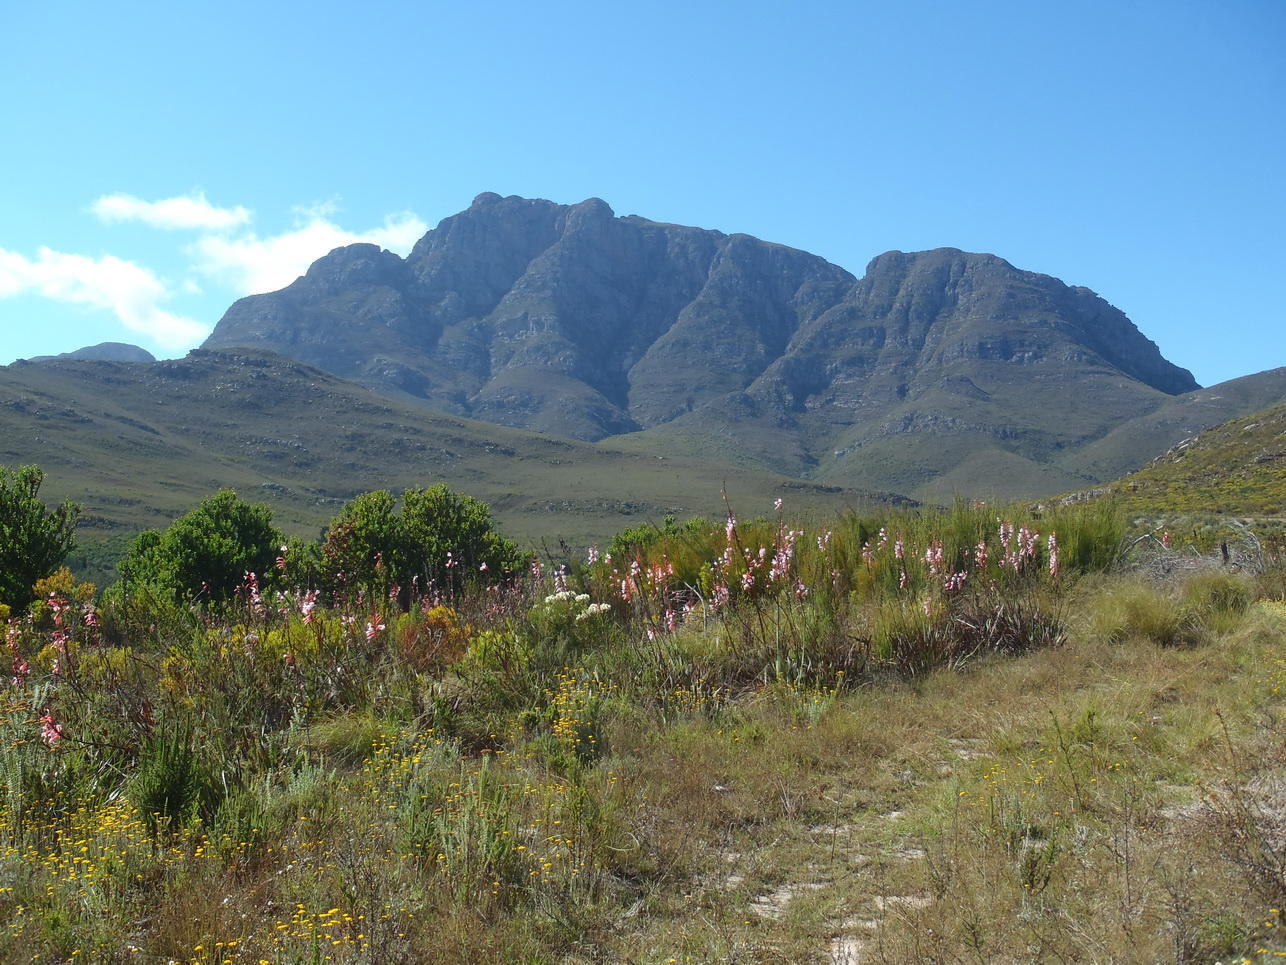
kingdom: Plantae
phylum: Tracheophyta
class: Liliopsida
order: Asparagales
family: Iridaceae
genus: Watsonia
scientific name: Watsonia fourcadei
